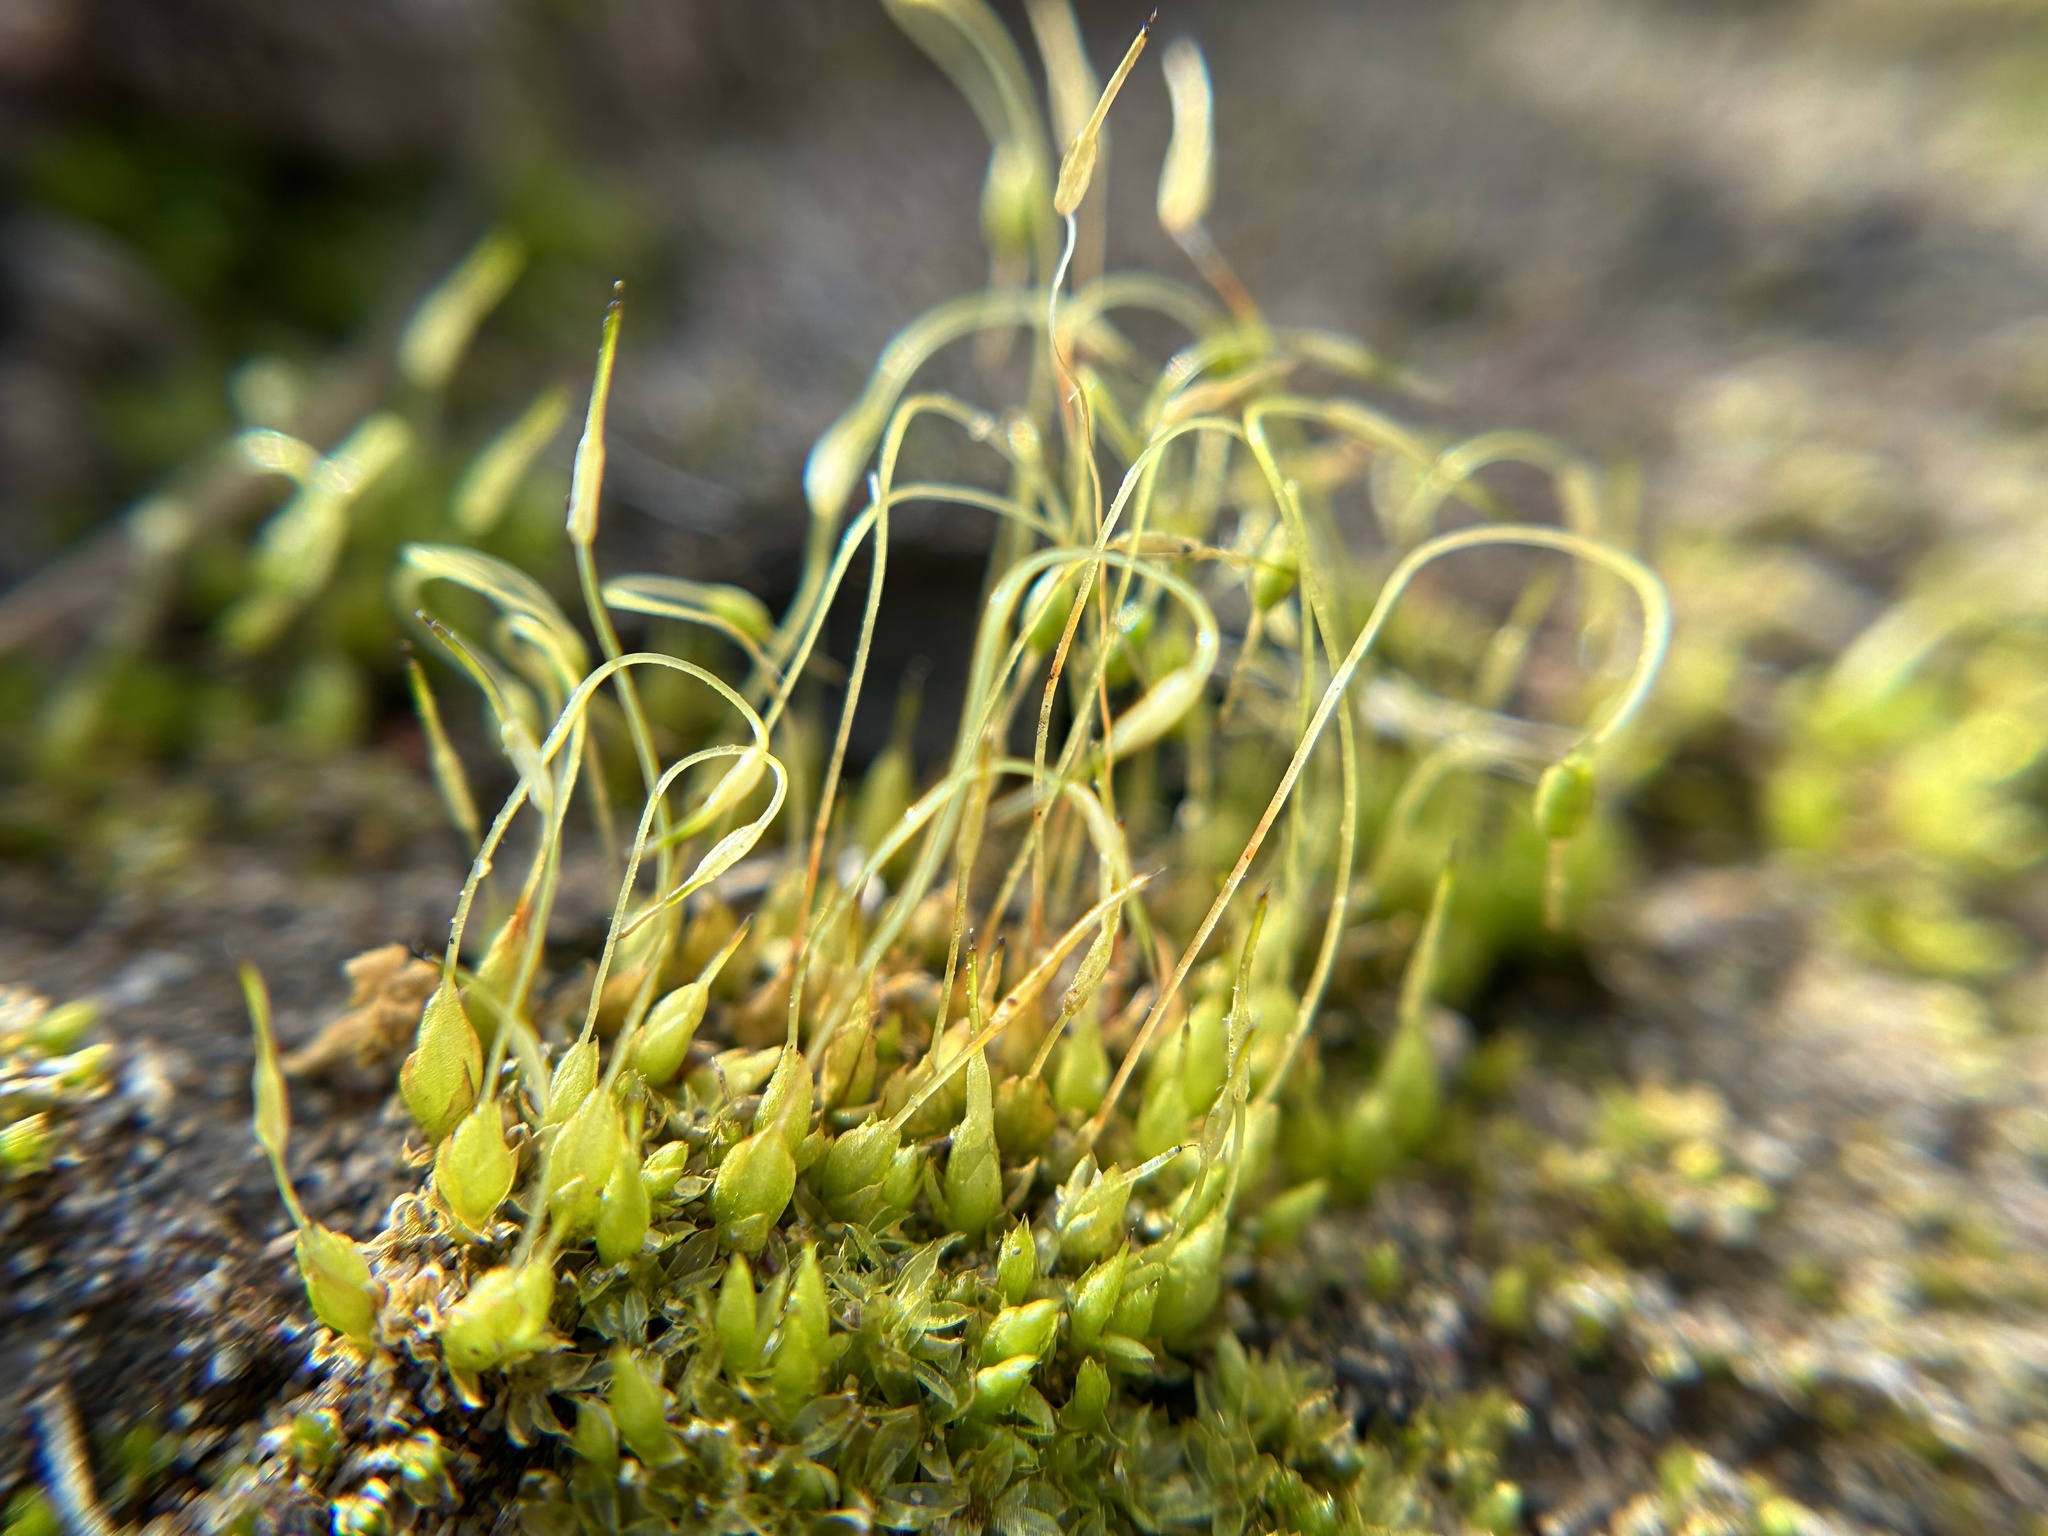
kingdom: Plantae
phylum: Bryophyta
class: Bryopsida
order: Funariales
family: Funariaceae
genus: Funaria
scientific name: Funaria hygrometrica
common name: Common cord moss
